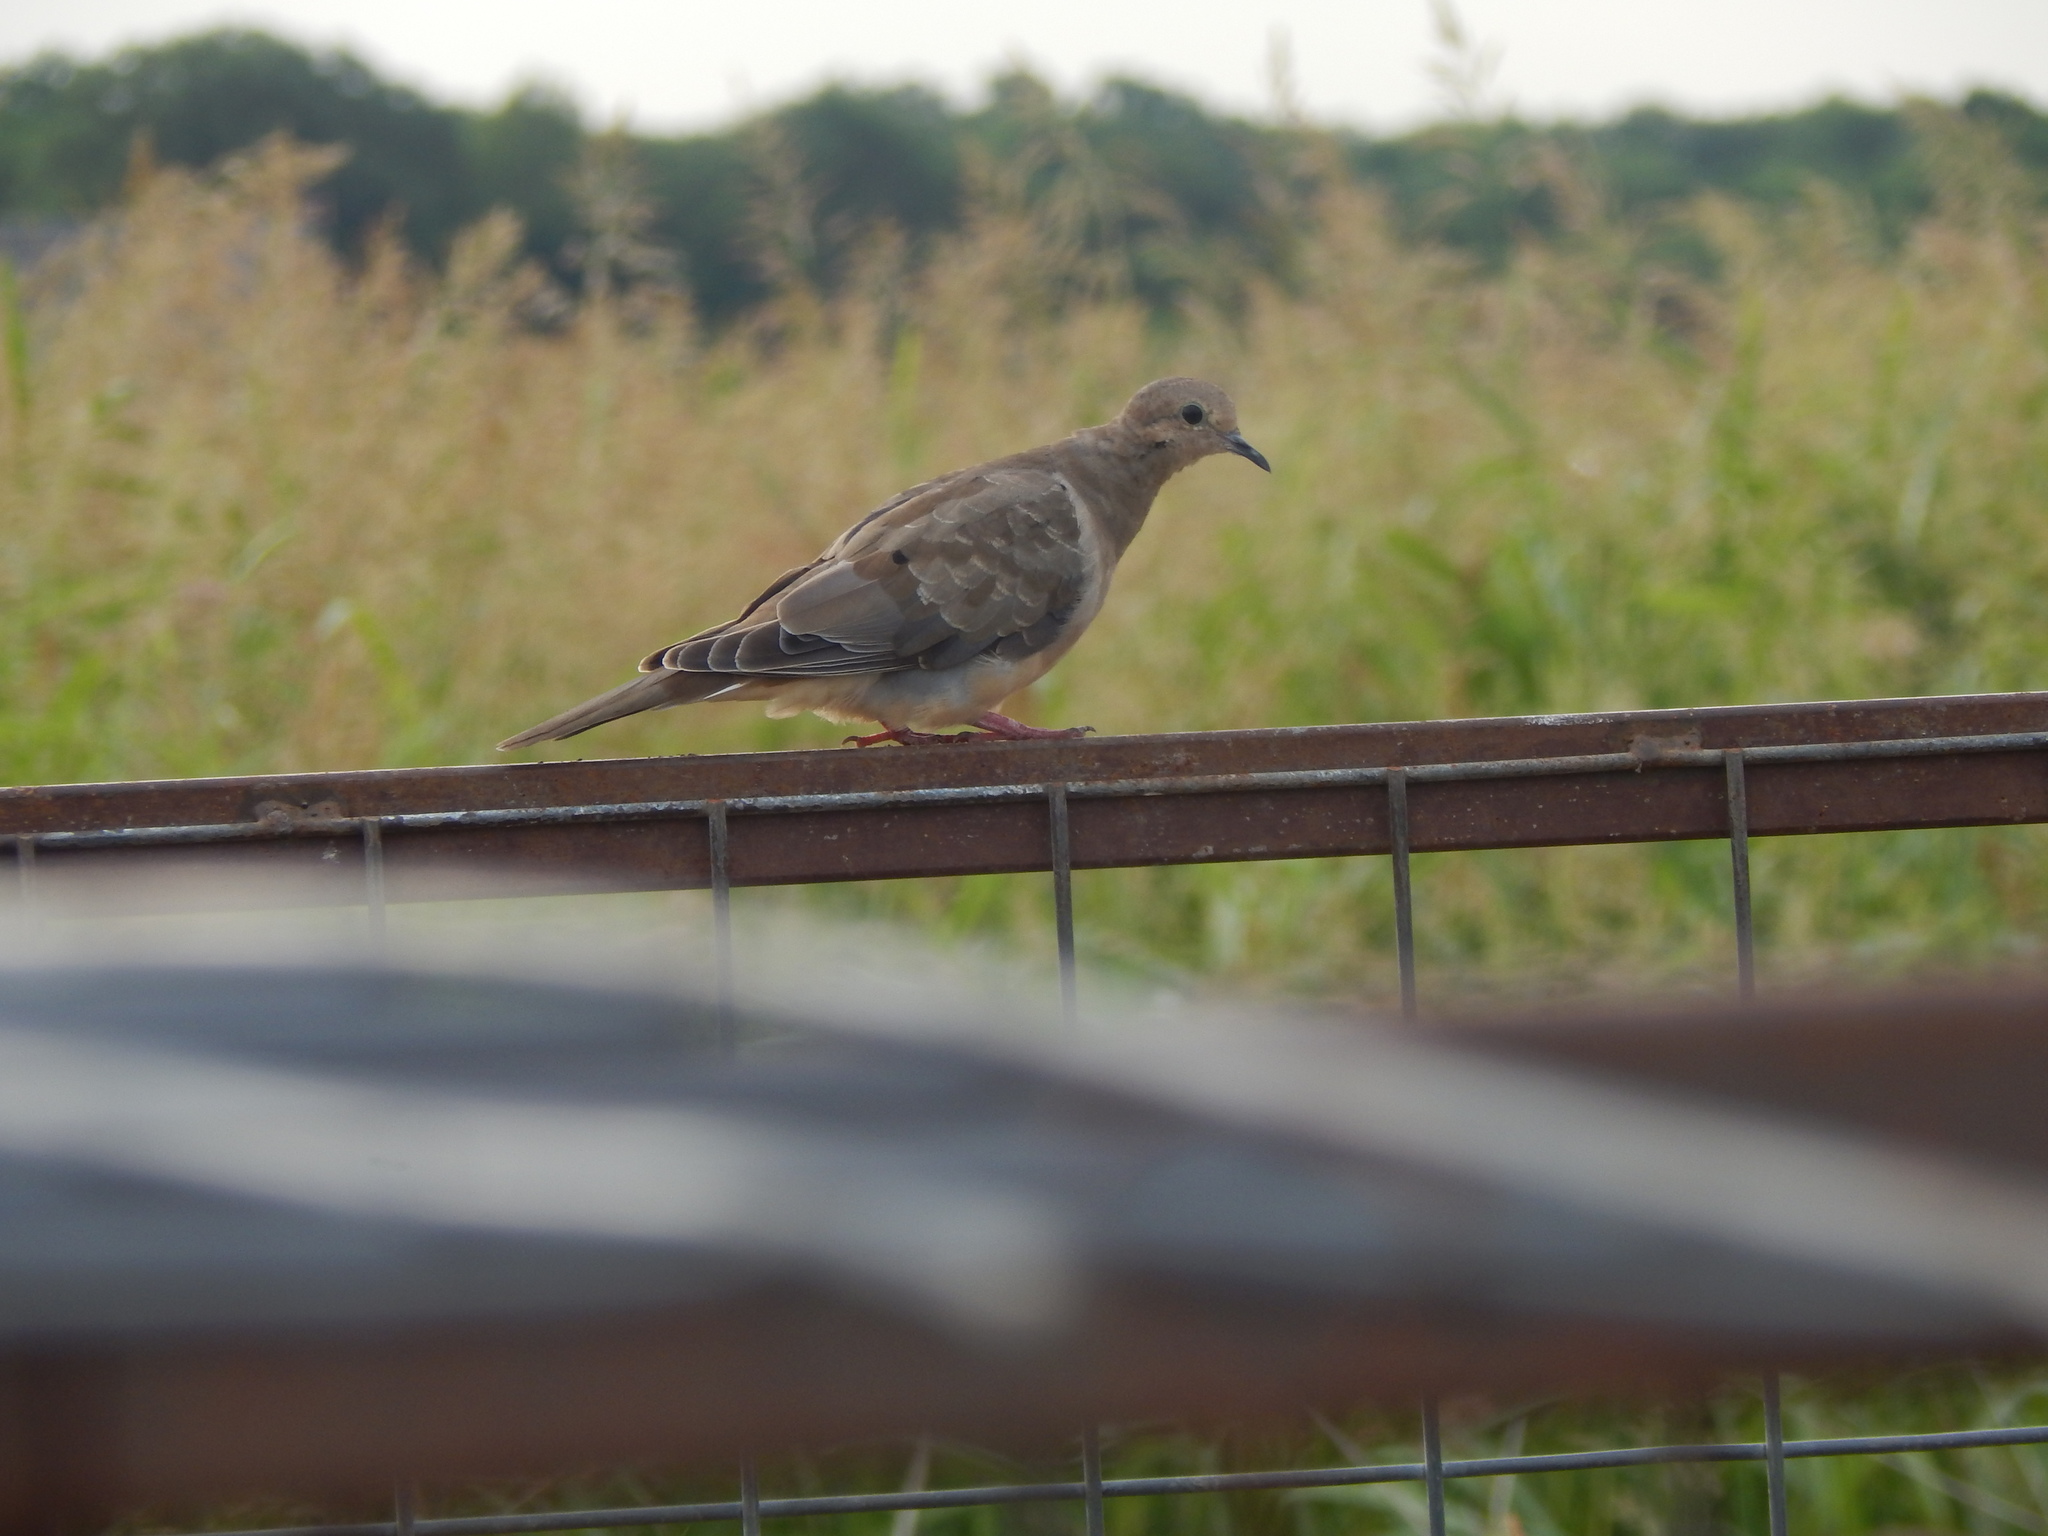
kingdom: Animalia
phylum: Chordata
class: Aves
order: Columbiformes
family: Columbidae
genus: Zenaida
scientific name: Zenaida macroura
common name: Mourning dove
